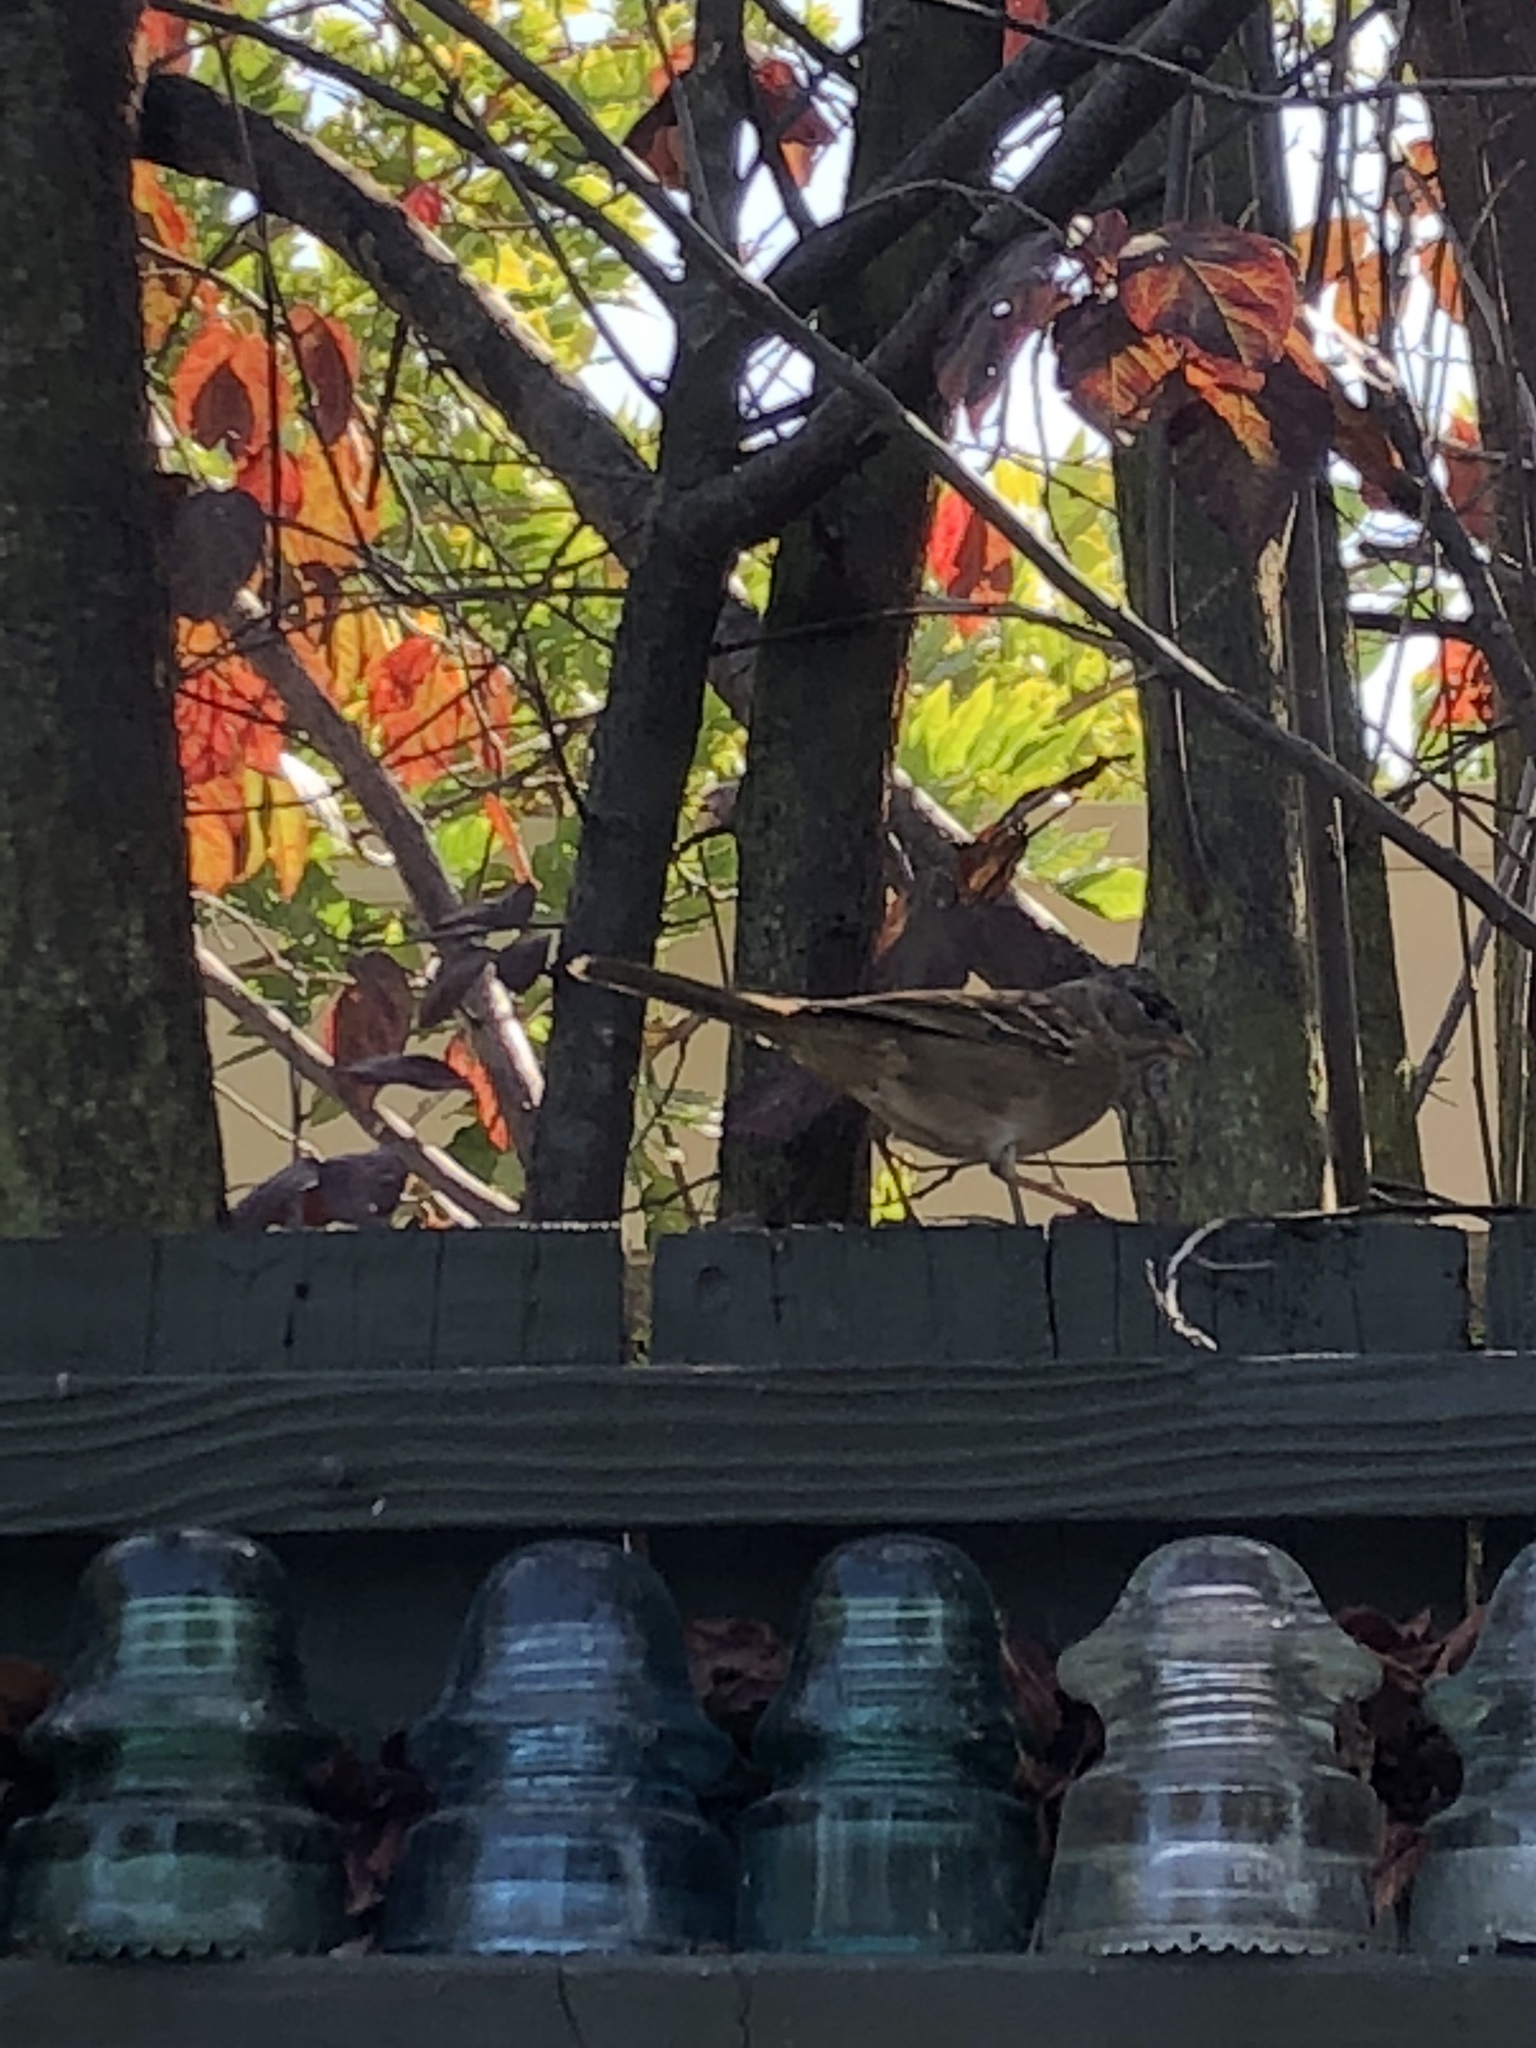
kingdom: Animalia
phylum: Chordata
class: Aves
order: Passeriformes
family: Passerellidae
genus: Zonotrichia
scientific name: Zonotrichia leucophrys
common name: White-crowned sparrow
